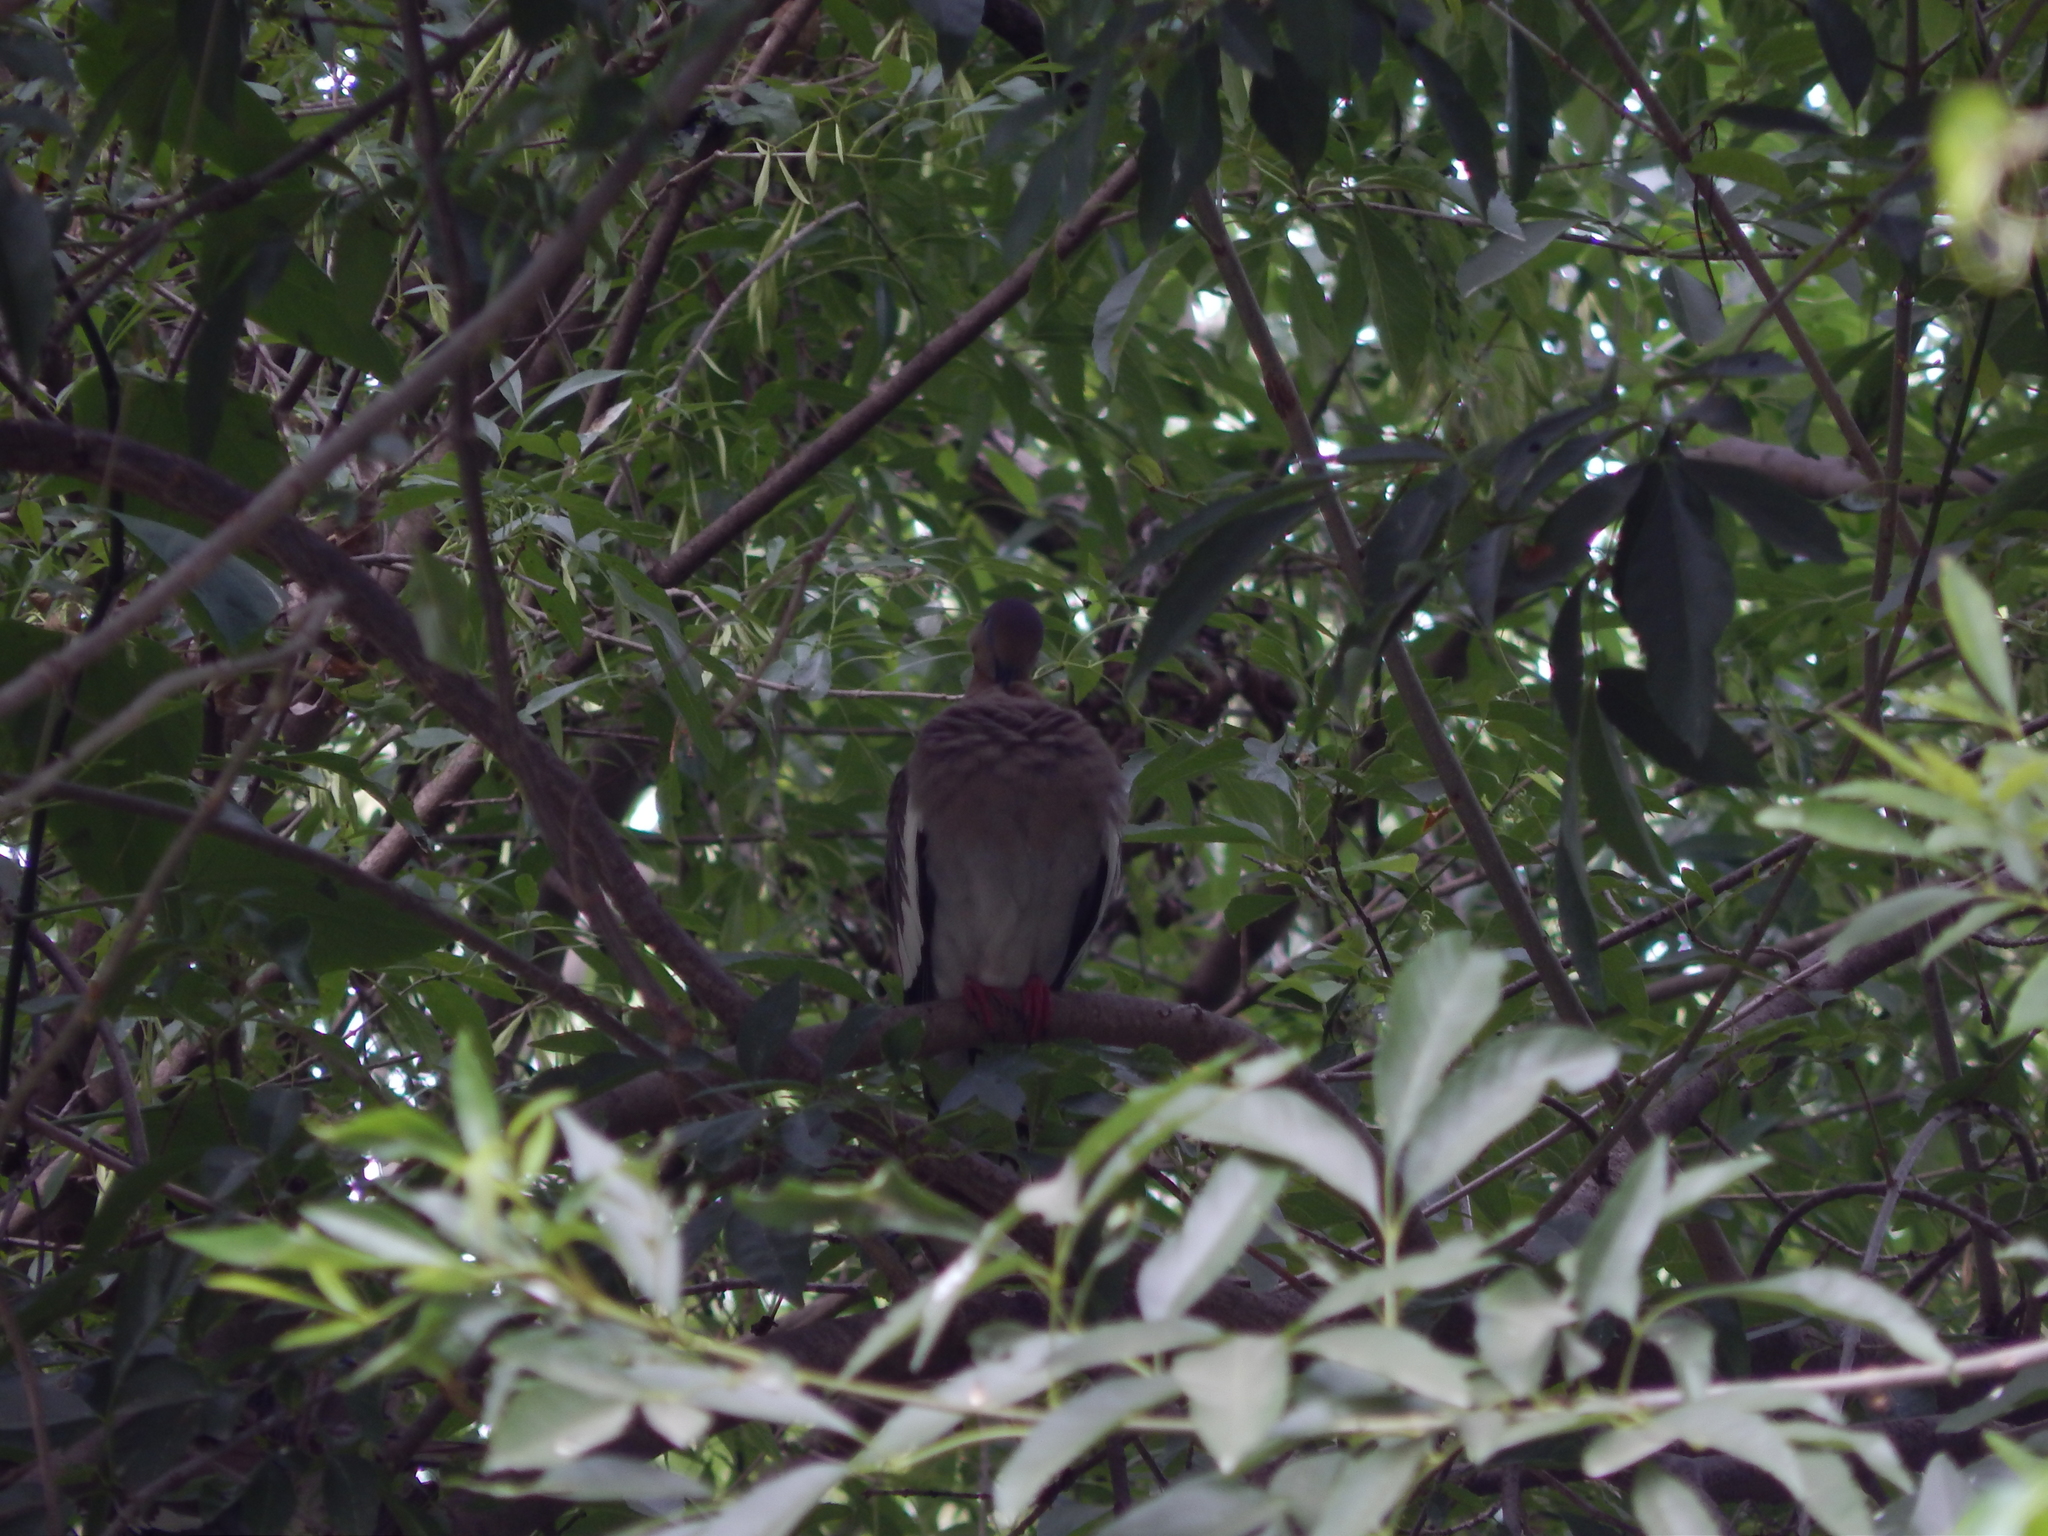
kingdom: Animalia
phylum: Chordata
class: Aves
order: Columbiformes
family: Columbidae
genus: Zenaida
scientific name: Zenaida asiatica
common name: White-winged dove
